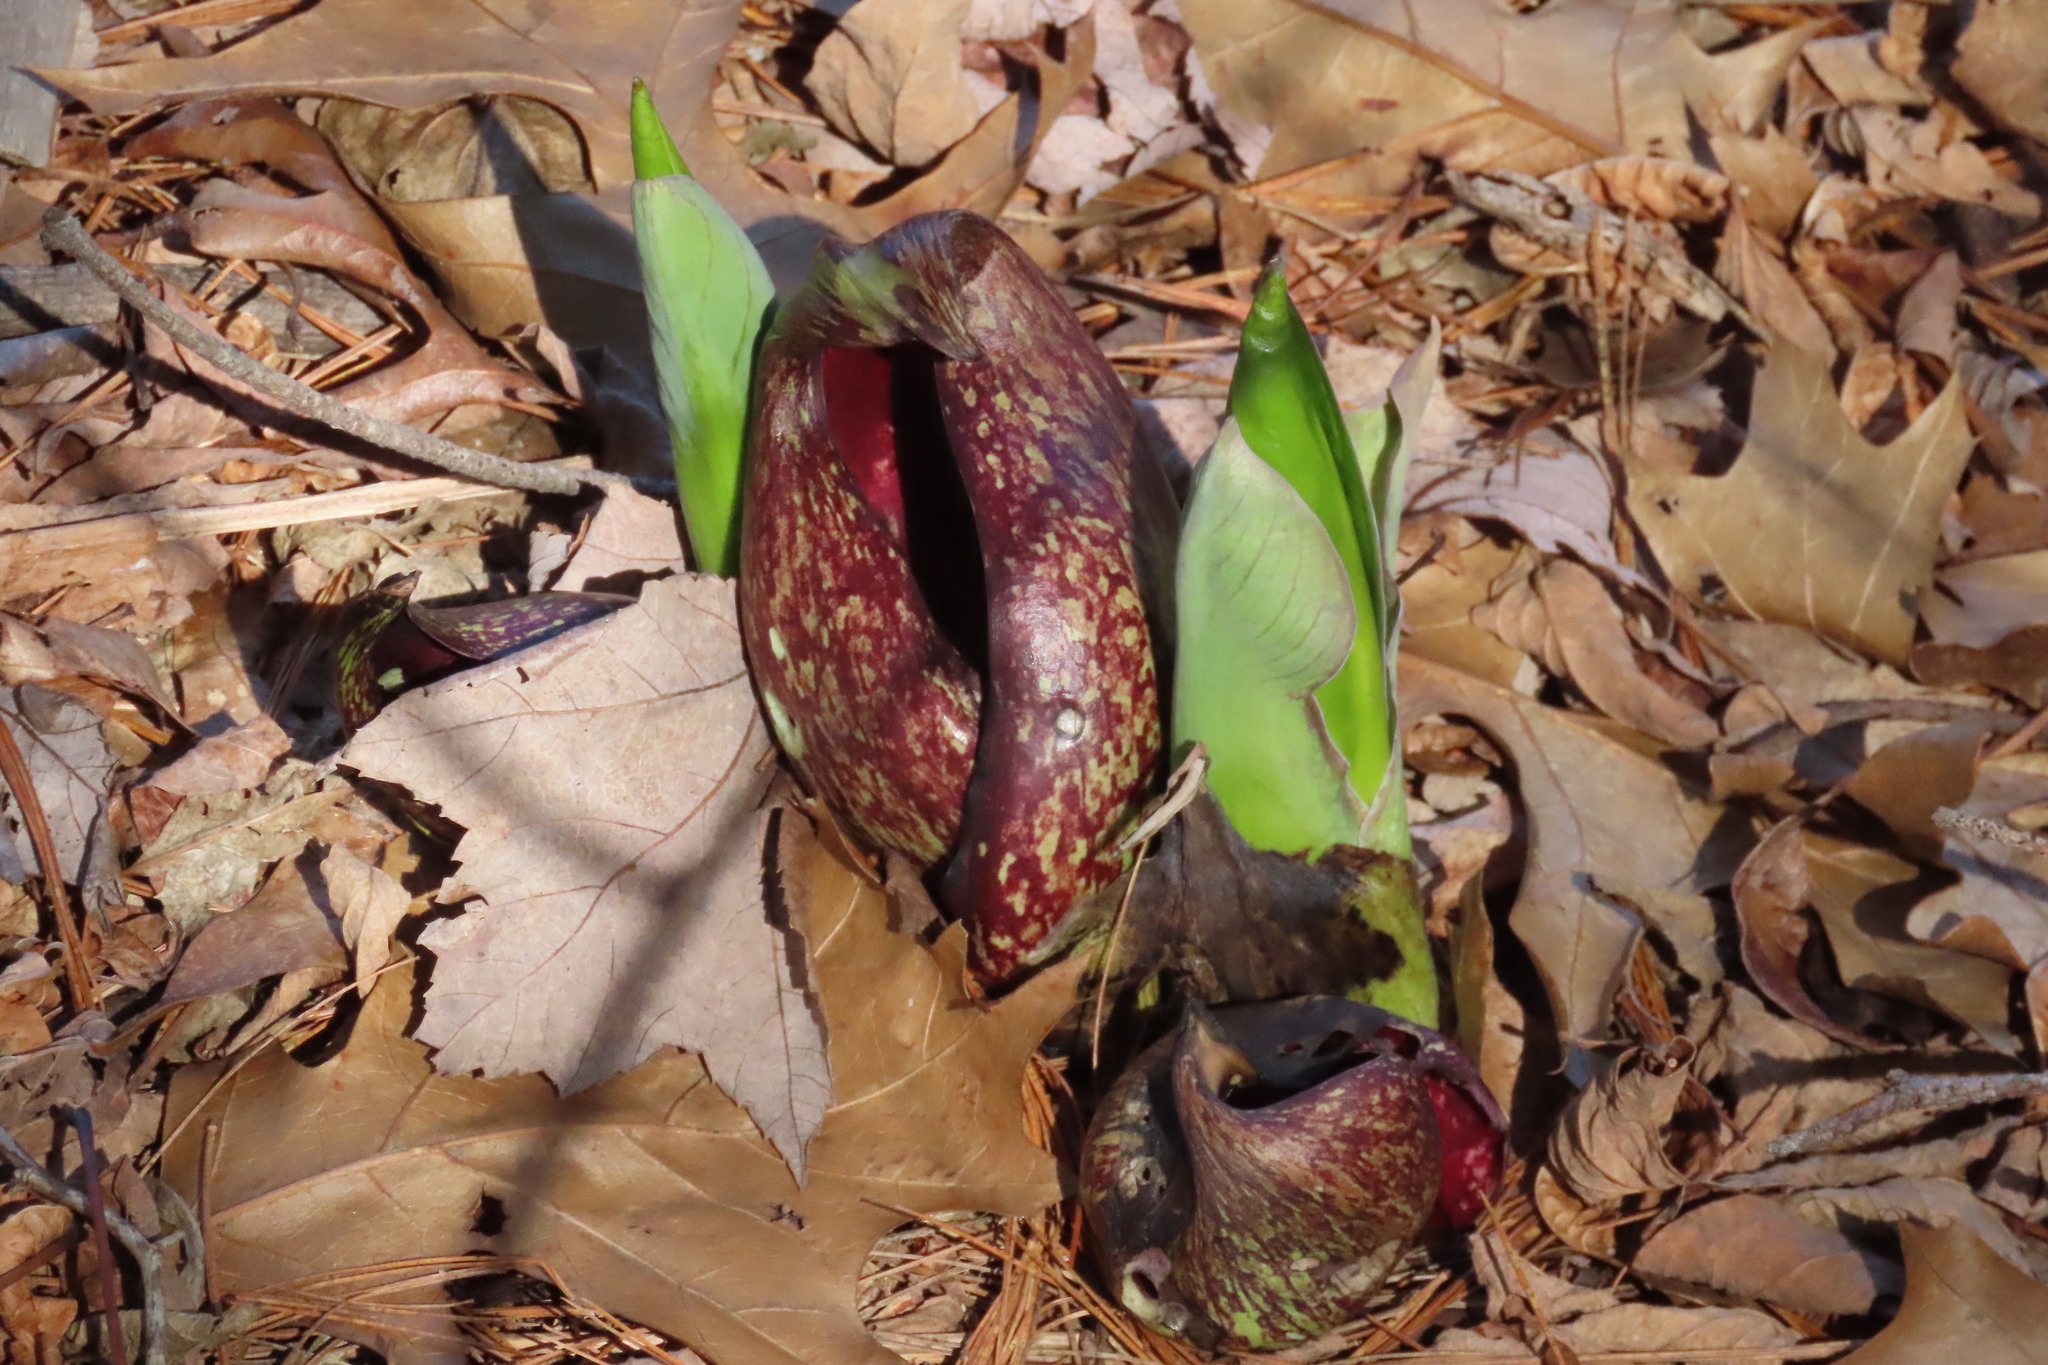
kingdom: Plantae
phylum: Tracheophyta
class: Liliopsida
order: Alismatales
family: Araceae
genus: Symplocarpus
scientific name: Symplocarpus foetidus
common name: Eastern skunk cabbage
